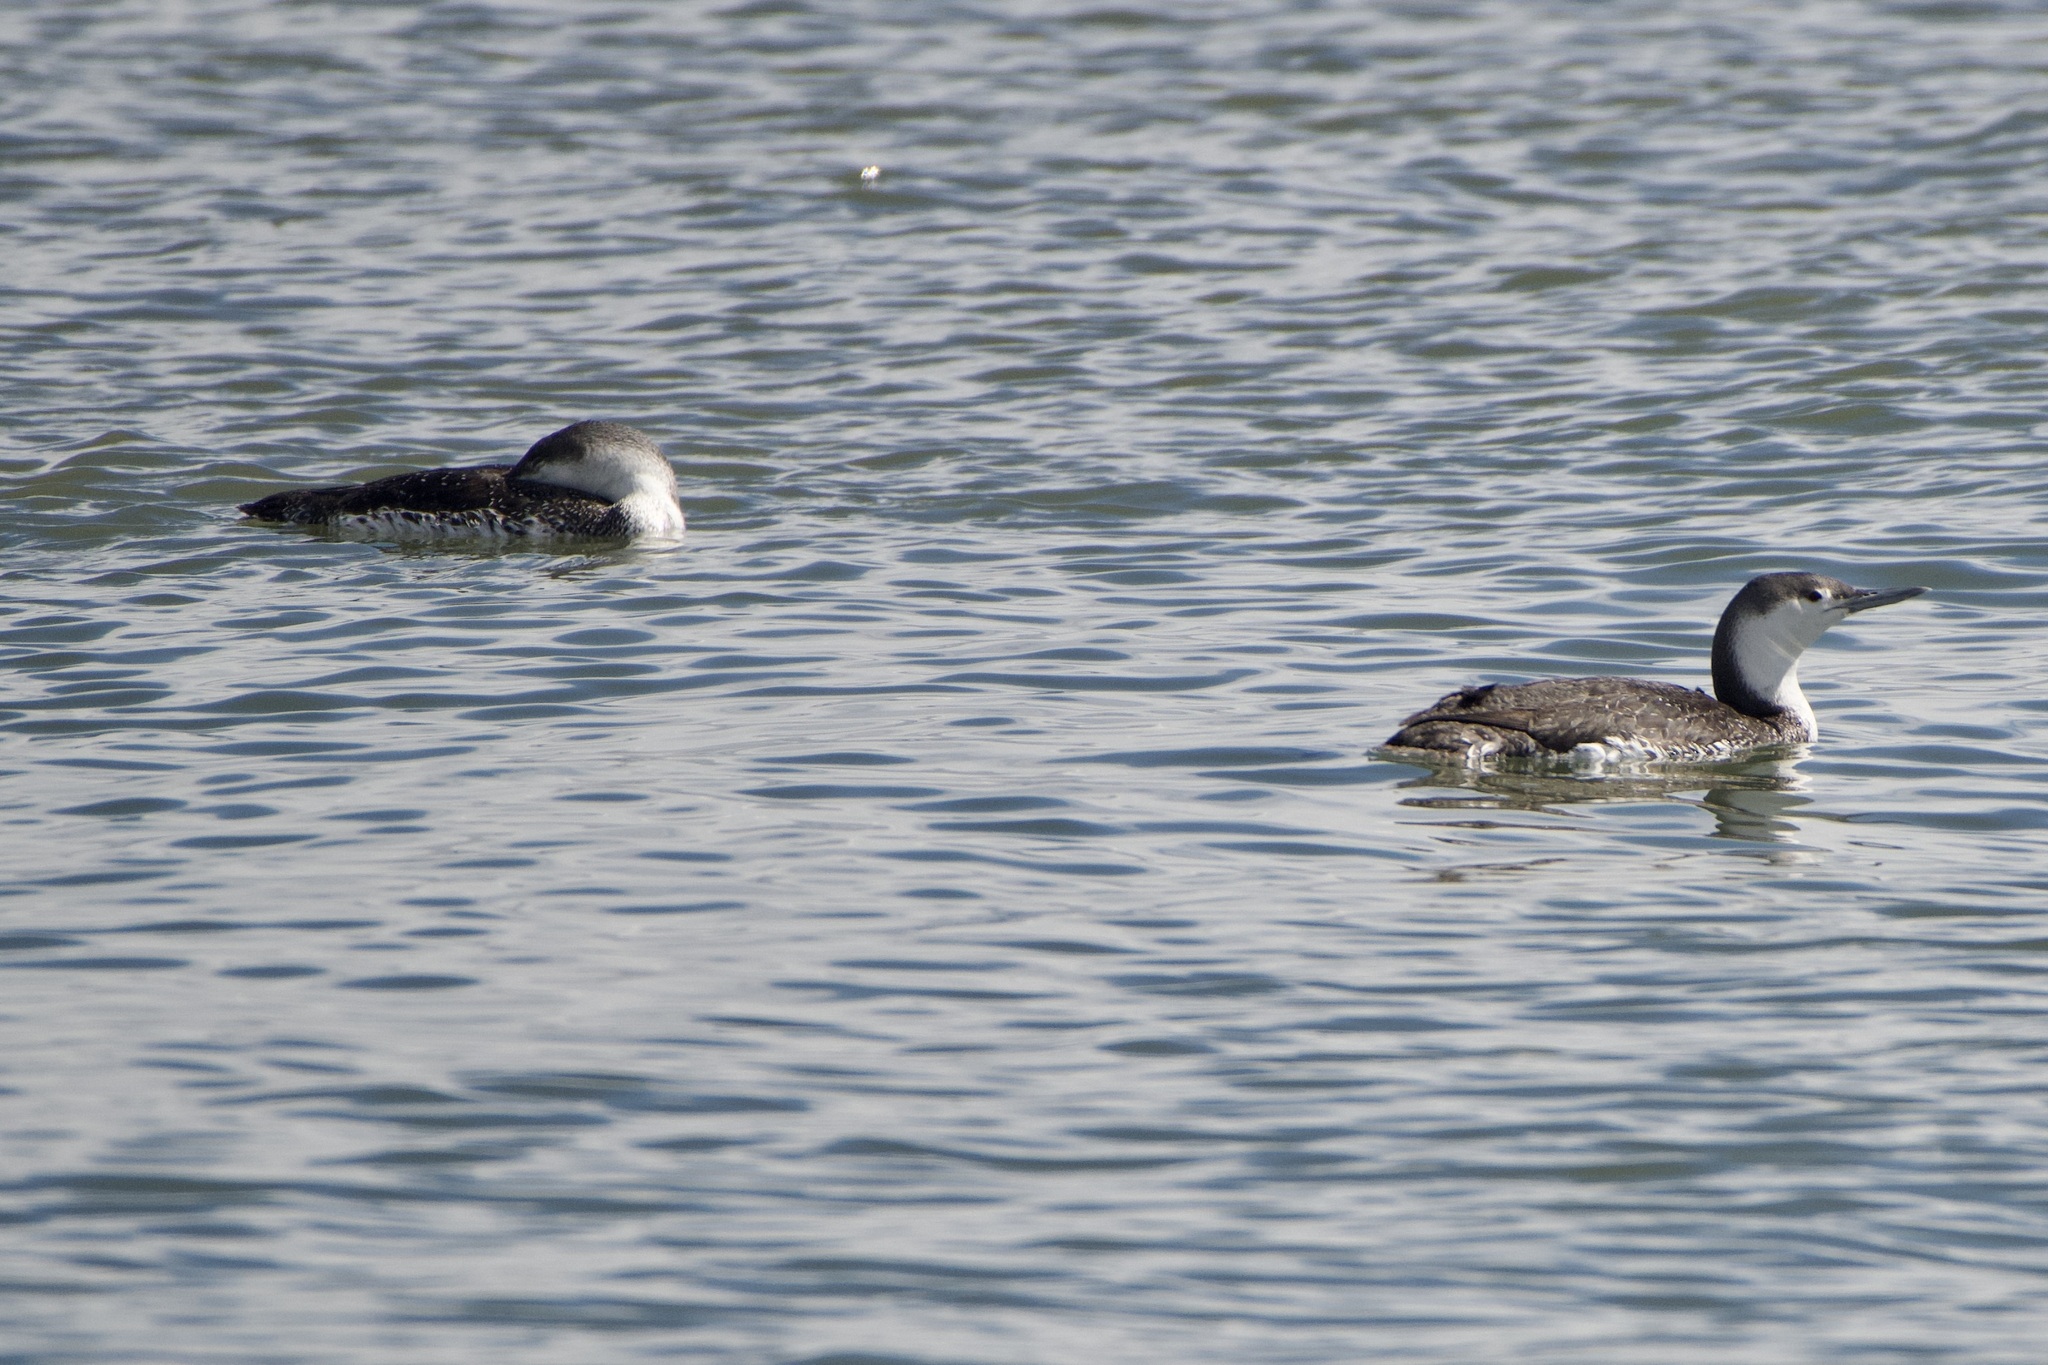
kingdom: Animalia
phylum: Chordata
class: Aves
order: Gaviiformes
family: Gaviidae
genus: Gavia
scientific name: Gavia stellata
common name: Red-throated loon
